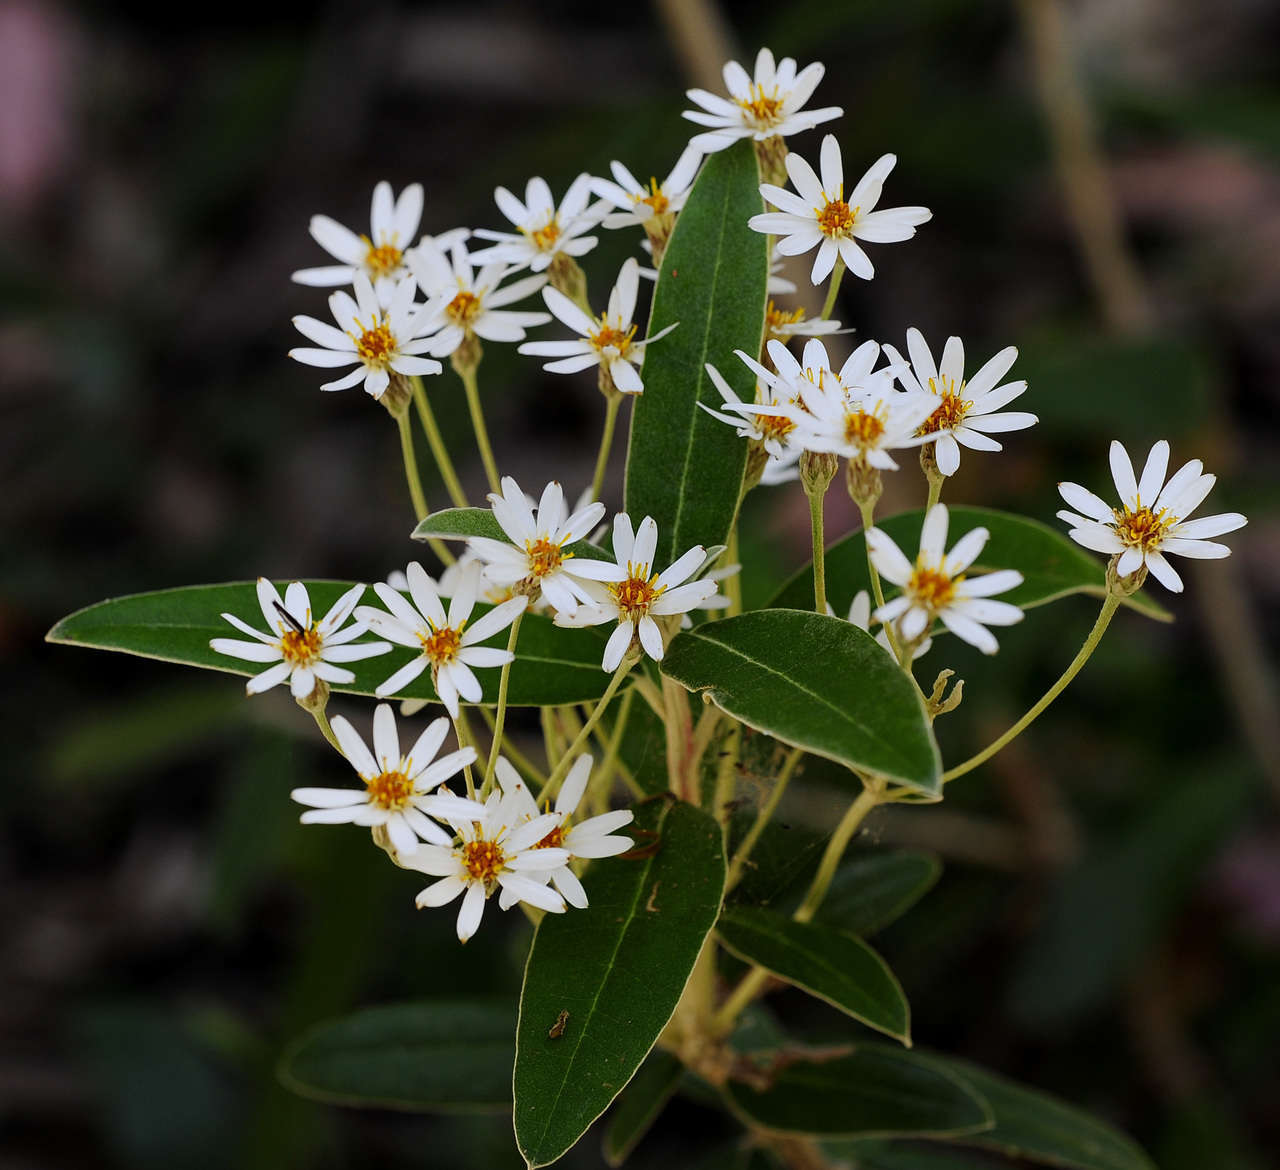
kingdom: Plantae
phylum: Tracheophyta
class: Magnoliopsida
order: Asterales
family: Asteraceae
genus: Olearia
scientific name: Olearia megalophylla
